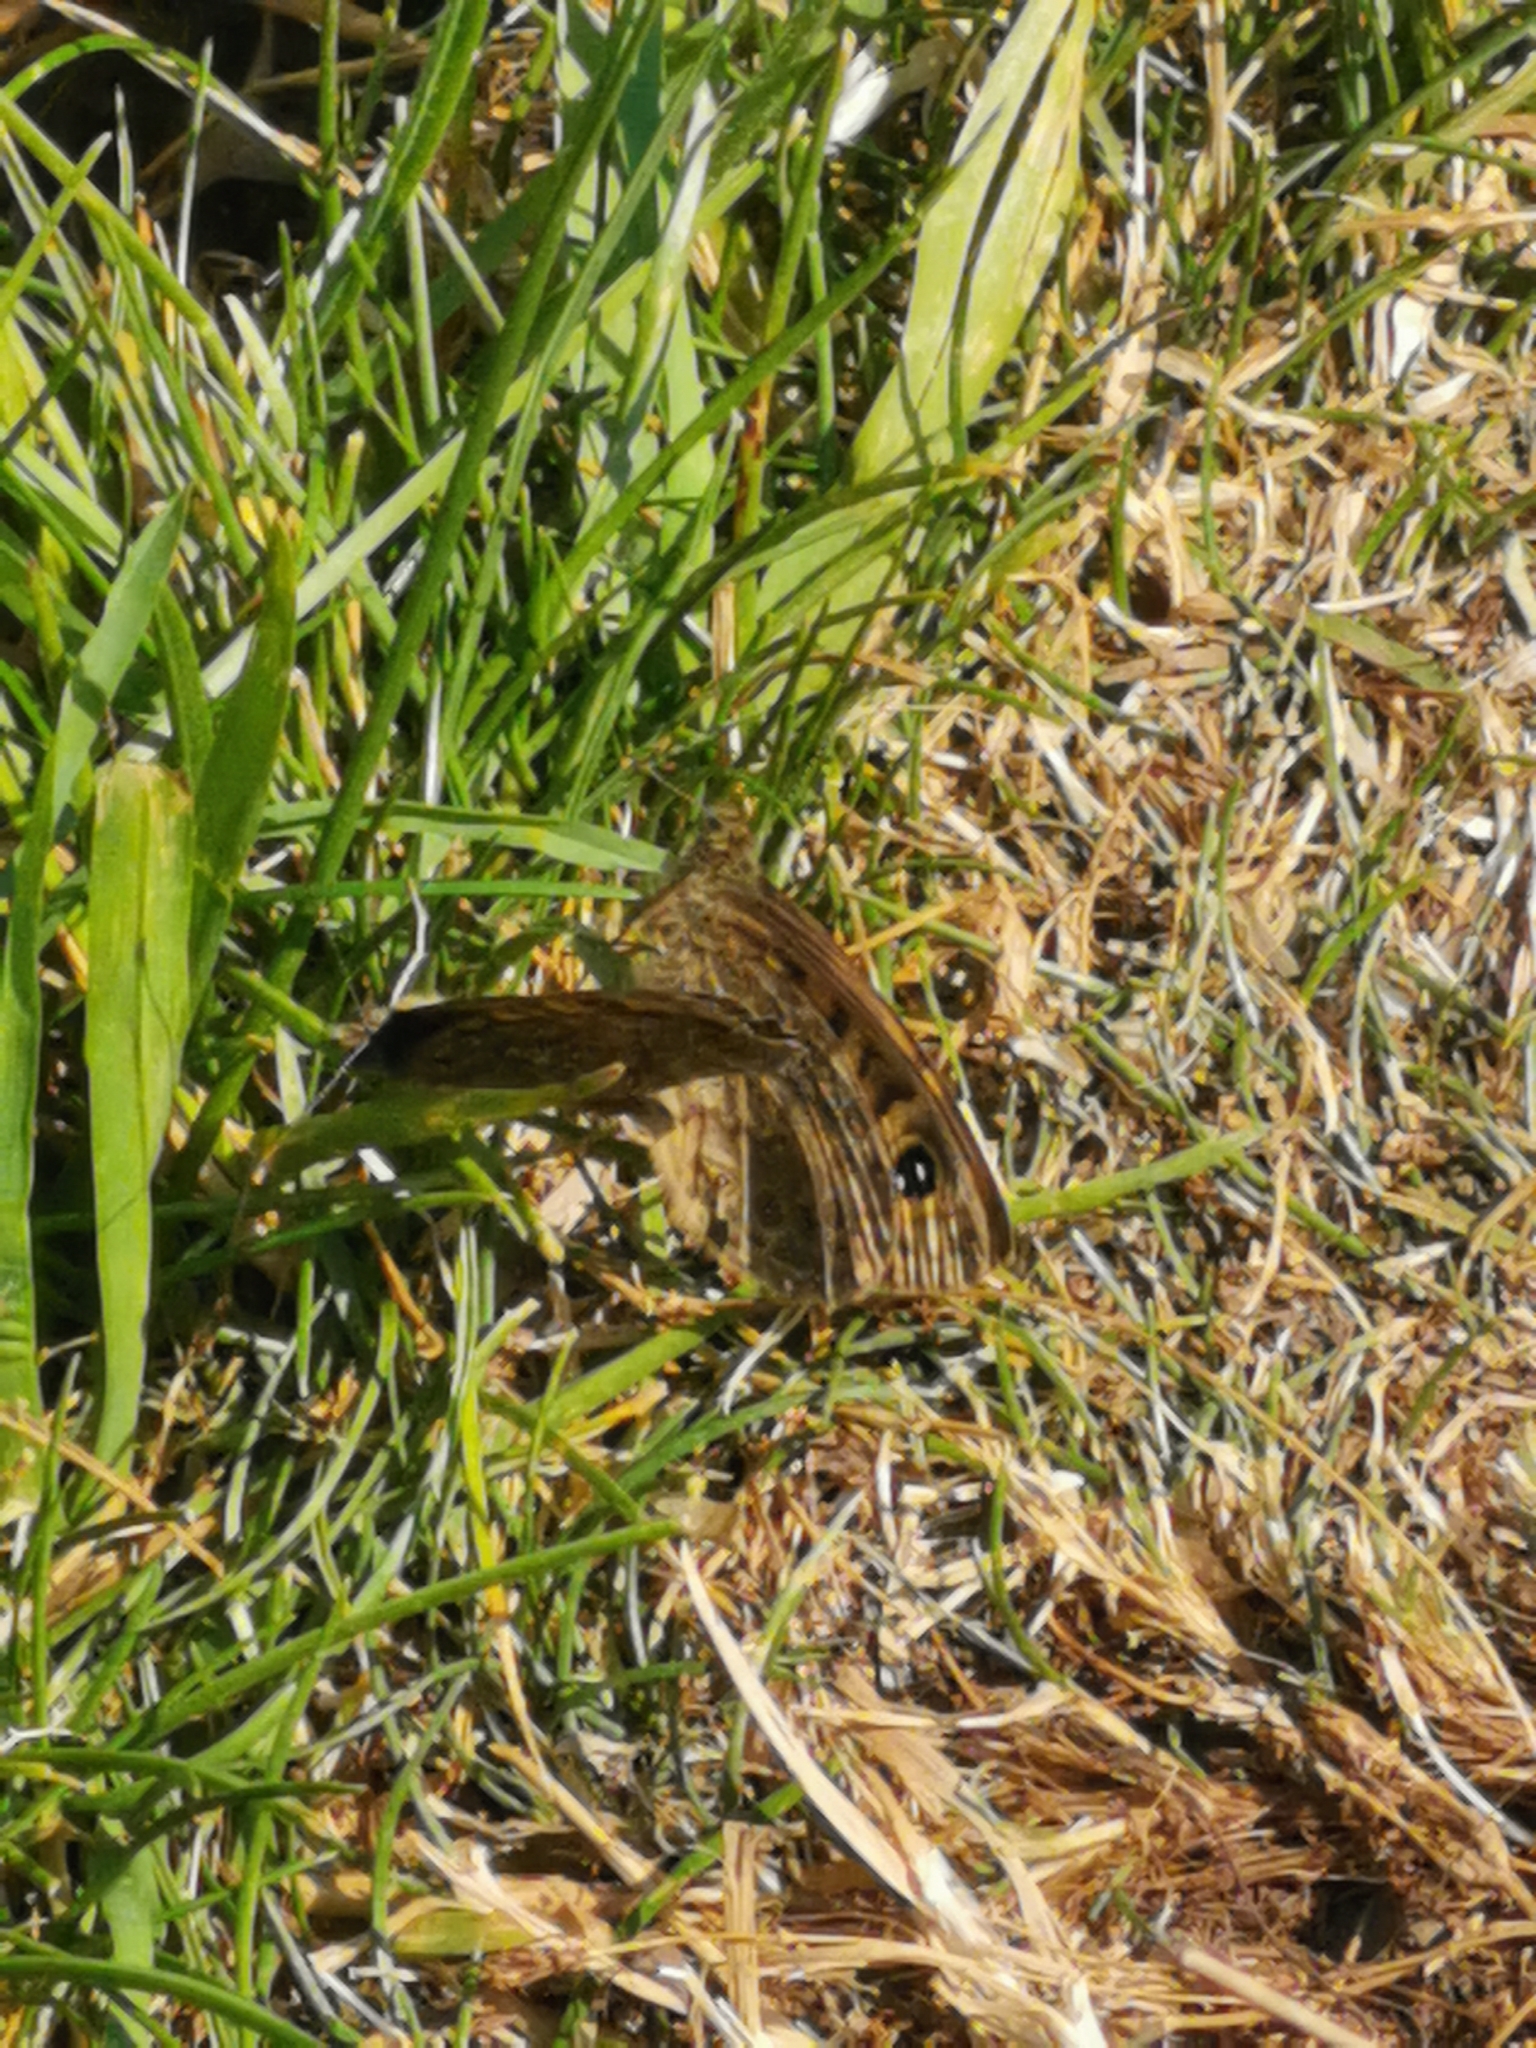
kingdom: Animalia
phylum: Arthropoda
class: Insecta
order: Lepidoptera
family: Nymphalidae
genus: Pararge
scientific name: Pararge Lasiommata megera
